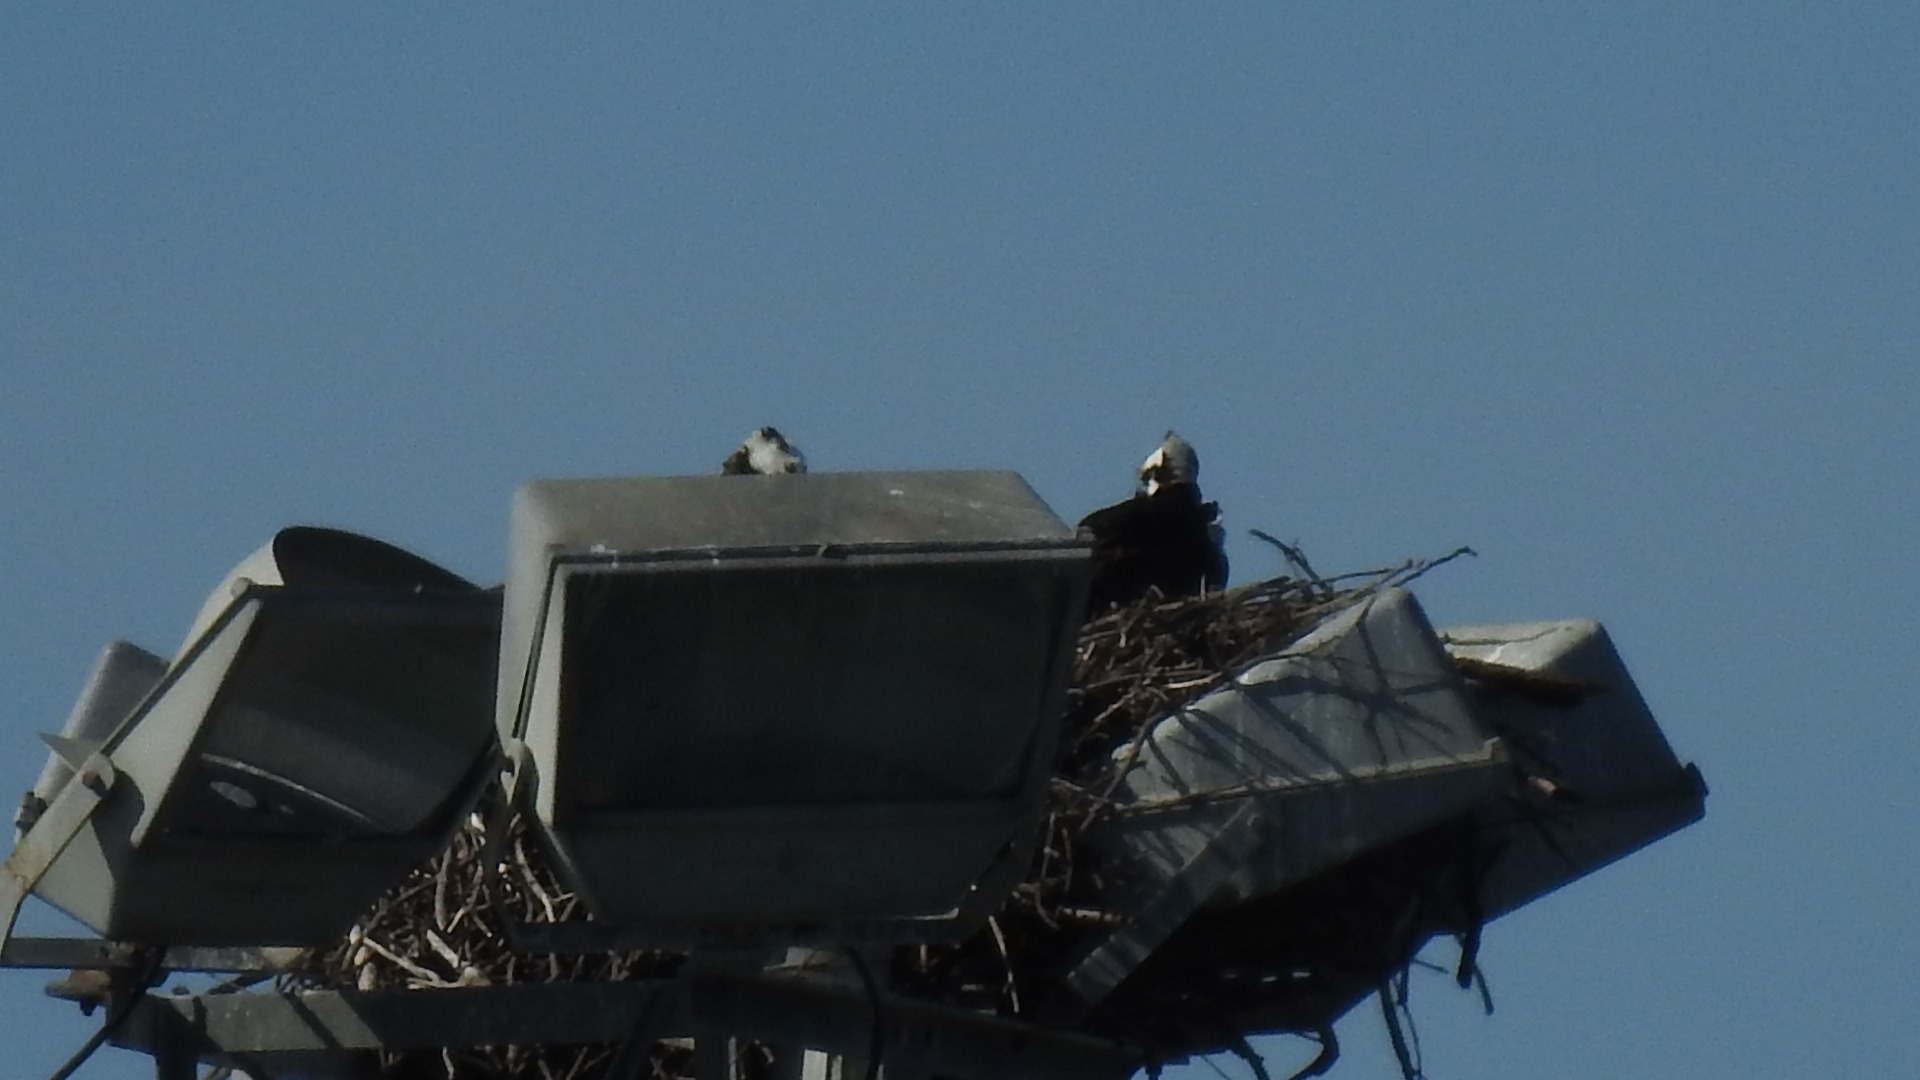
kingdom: Animalia
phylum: Chordata
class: Aves
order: Accipitriformes
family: Pandionidae
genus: Pandion
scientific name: Pandion haliaetus
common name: Osprey
